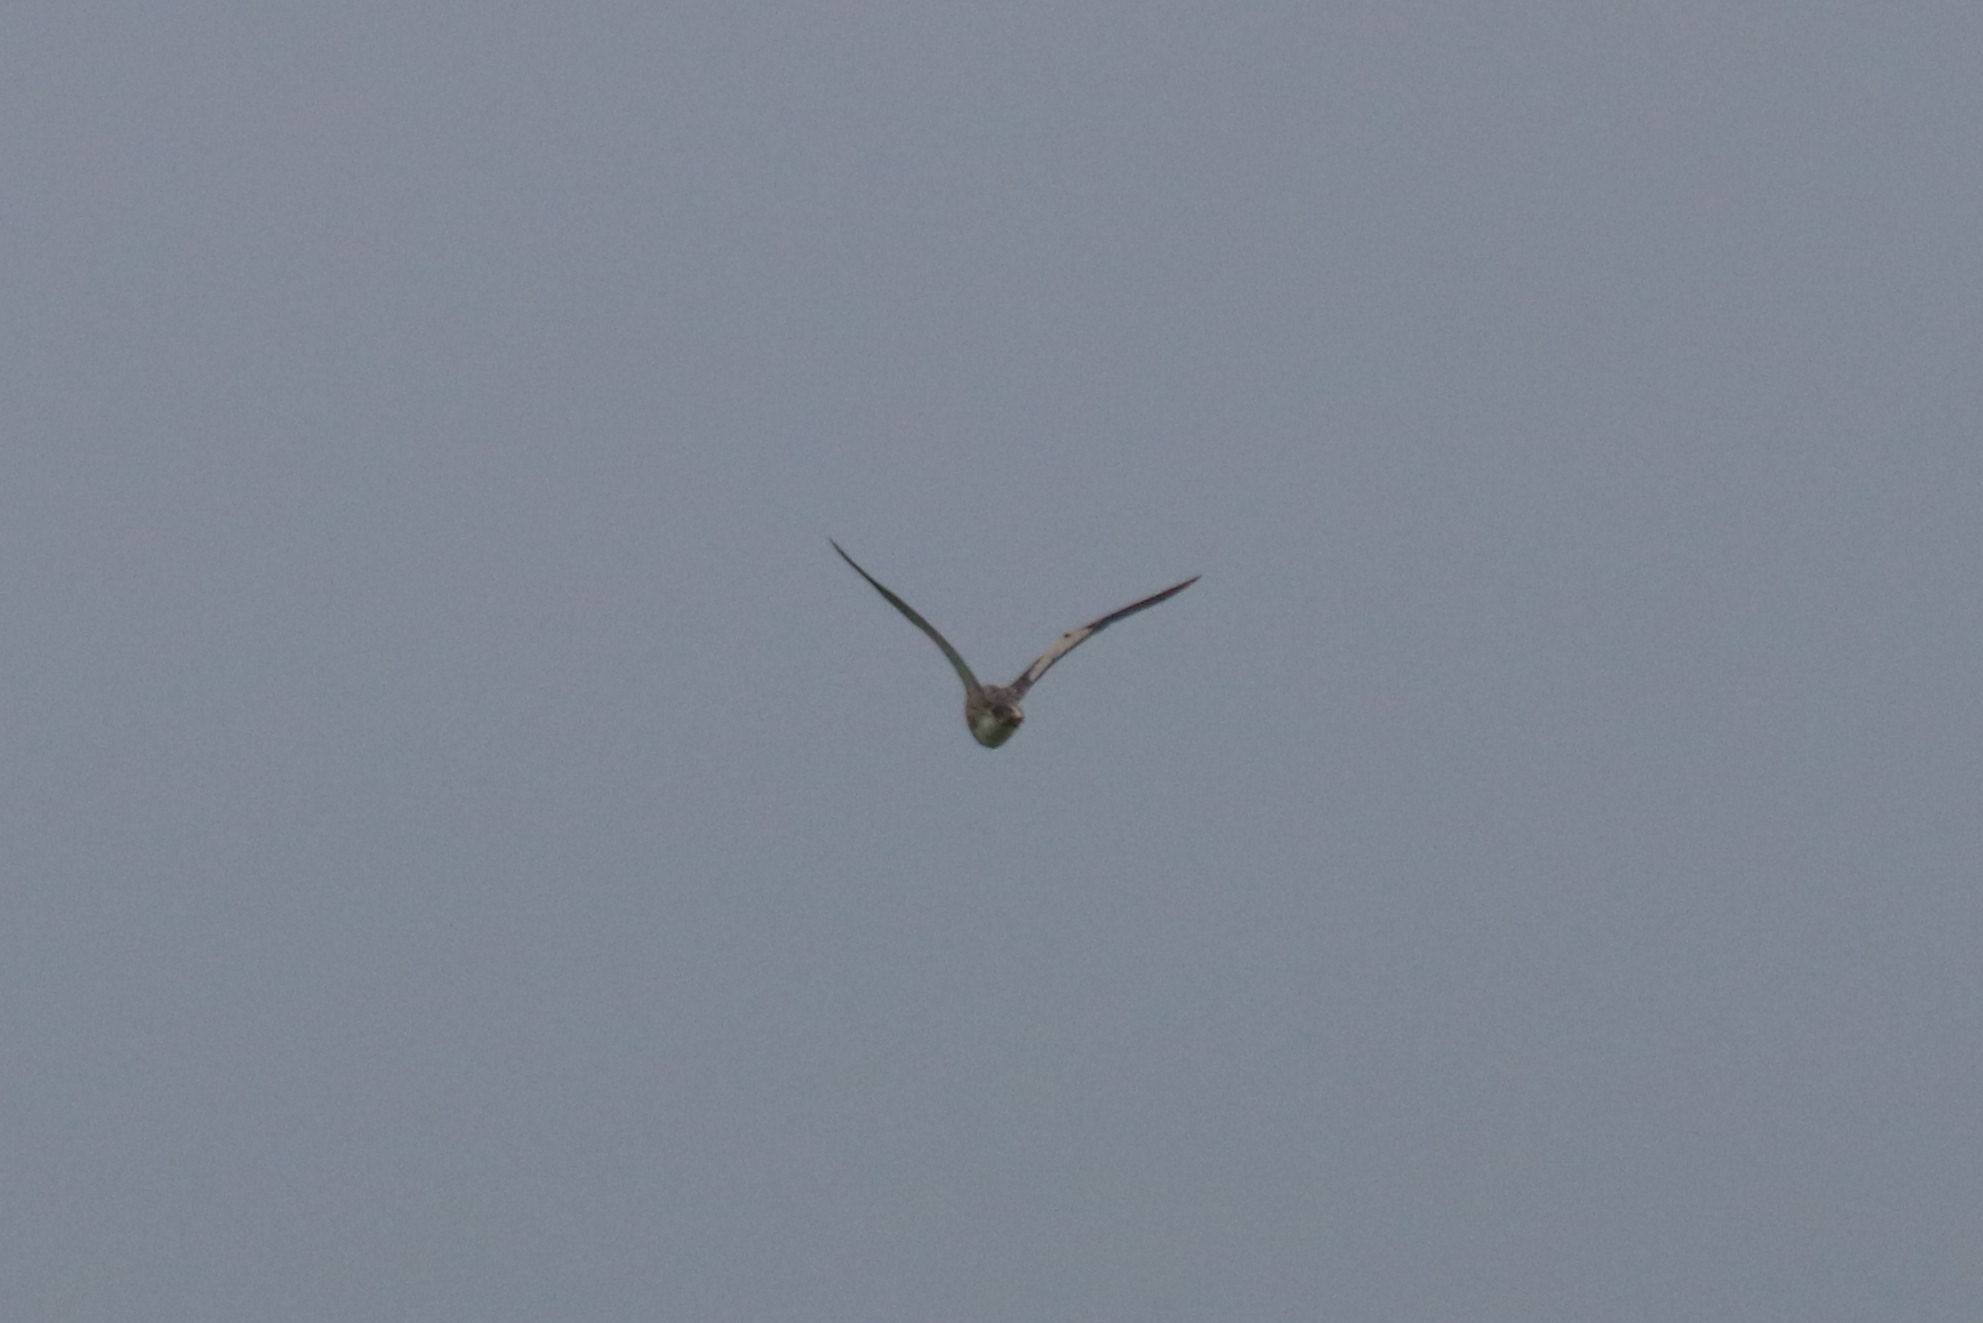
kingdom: Animalia
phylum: Chordata
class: Aves
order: Pelecaniformes
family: Ardeidae
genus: Ixobrychus
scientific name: Ixobrychus minutus
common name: Little bittern
